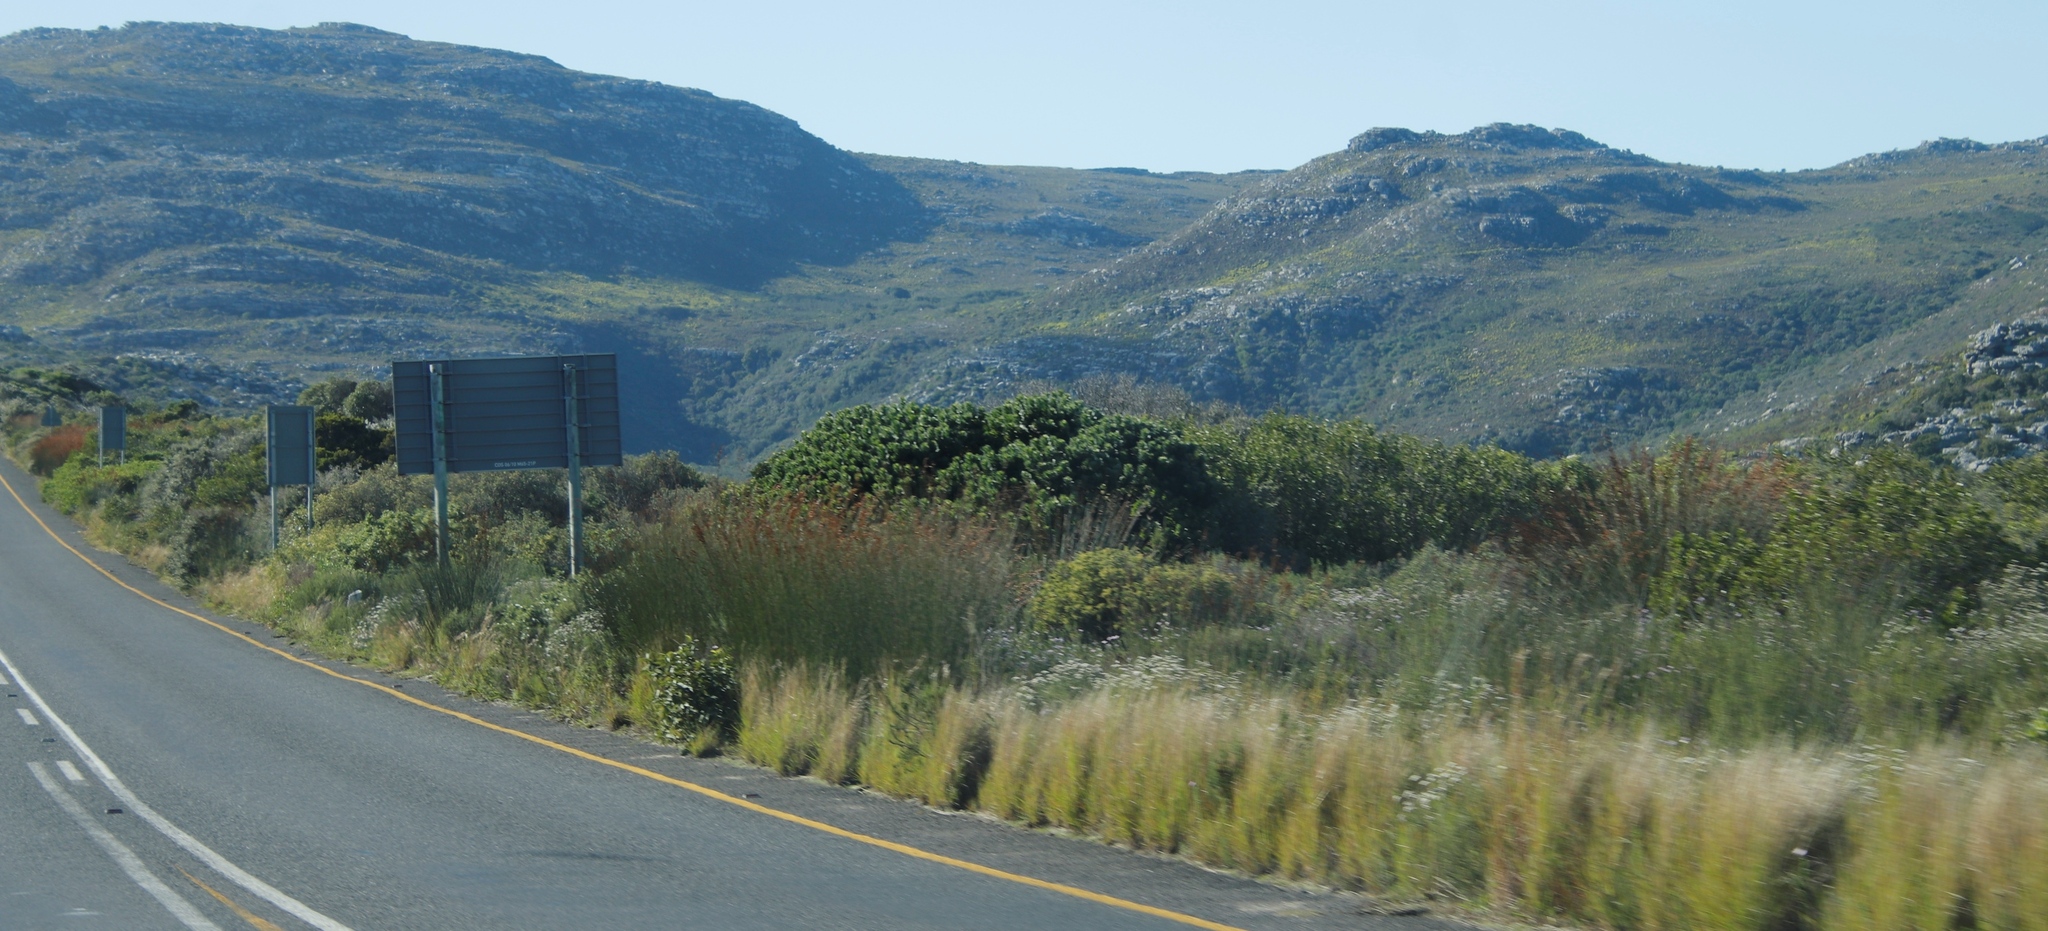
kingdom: Plantae
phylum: Tracheophyta
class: Liliopsida
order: Poales
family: Restionaceae
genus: Thamnochortus
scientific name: Thamnochortus insignis
